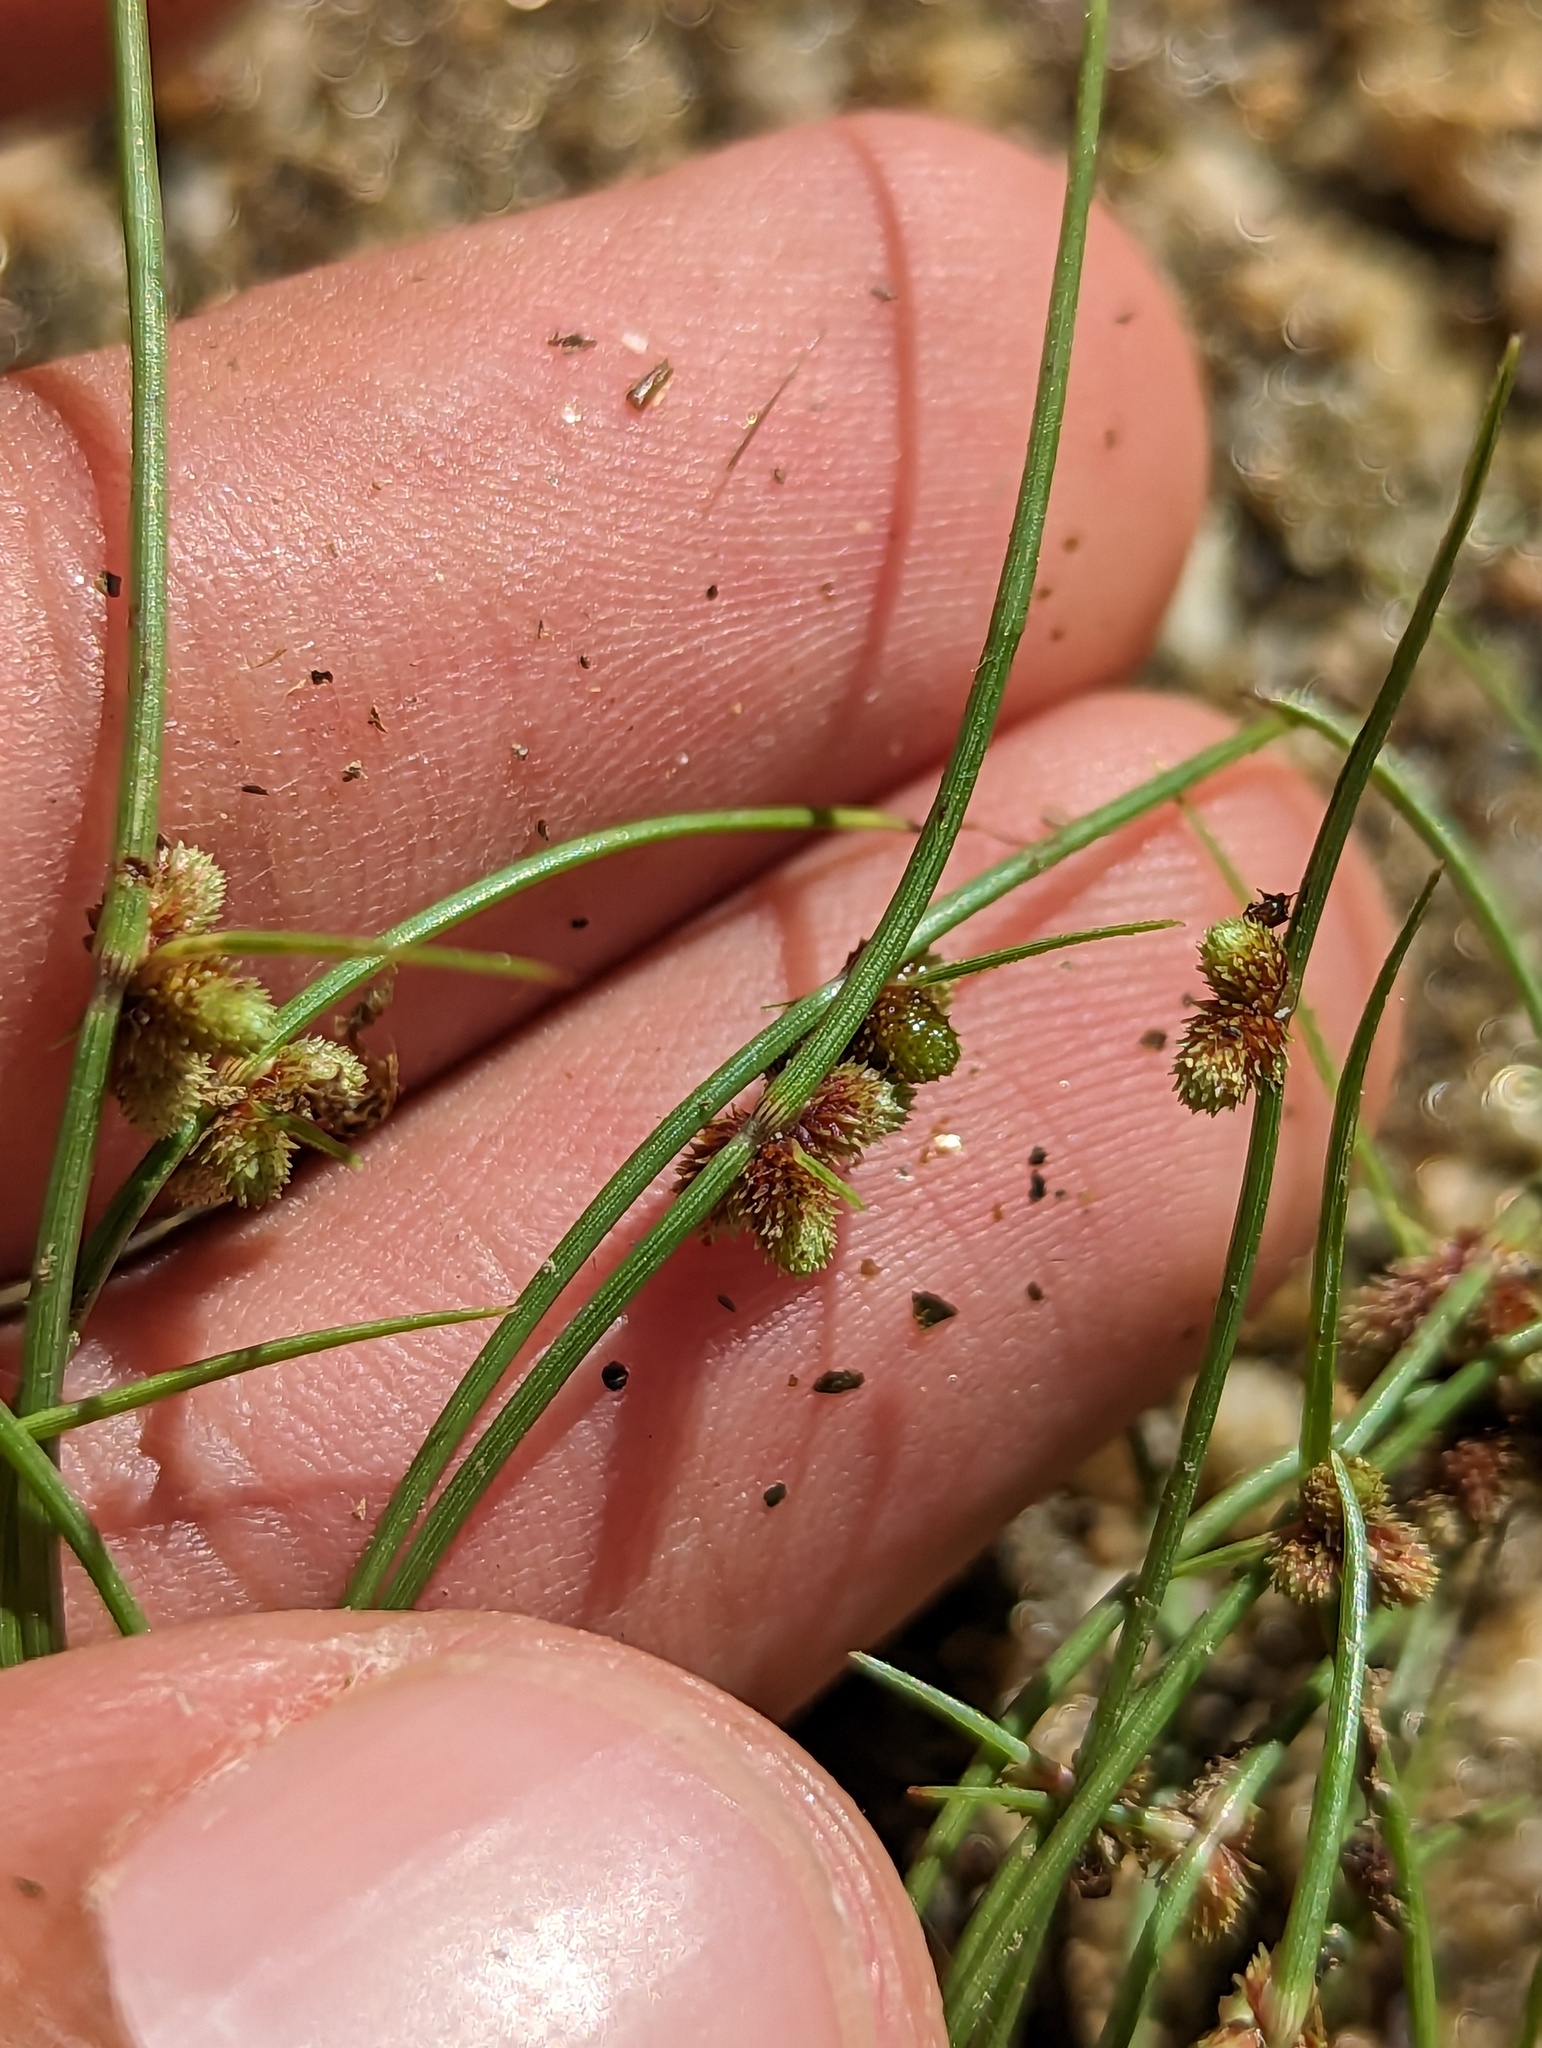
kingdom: Plantae
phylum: Tracheophyta
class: Liliopsida
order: Poales
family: Cyperaceae
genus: Cyperus
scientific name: Cyperus subsquarrosus
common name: Dwarf bulrush
